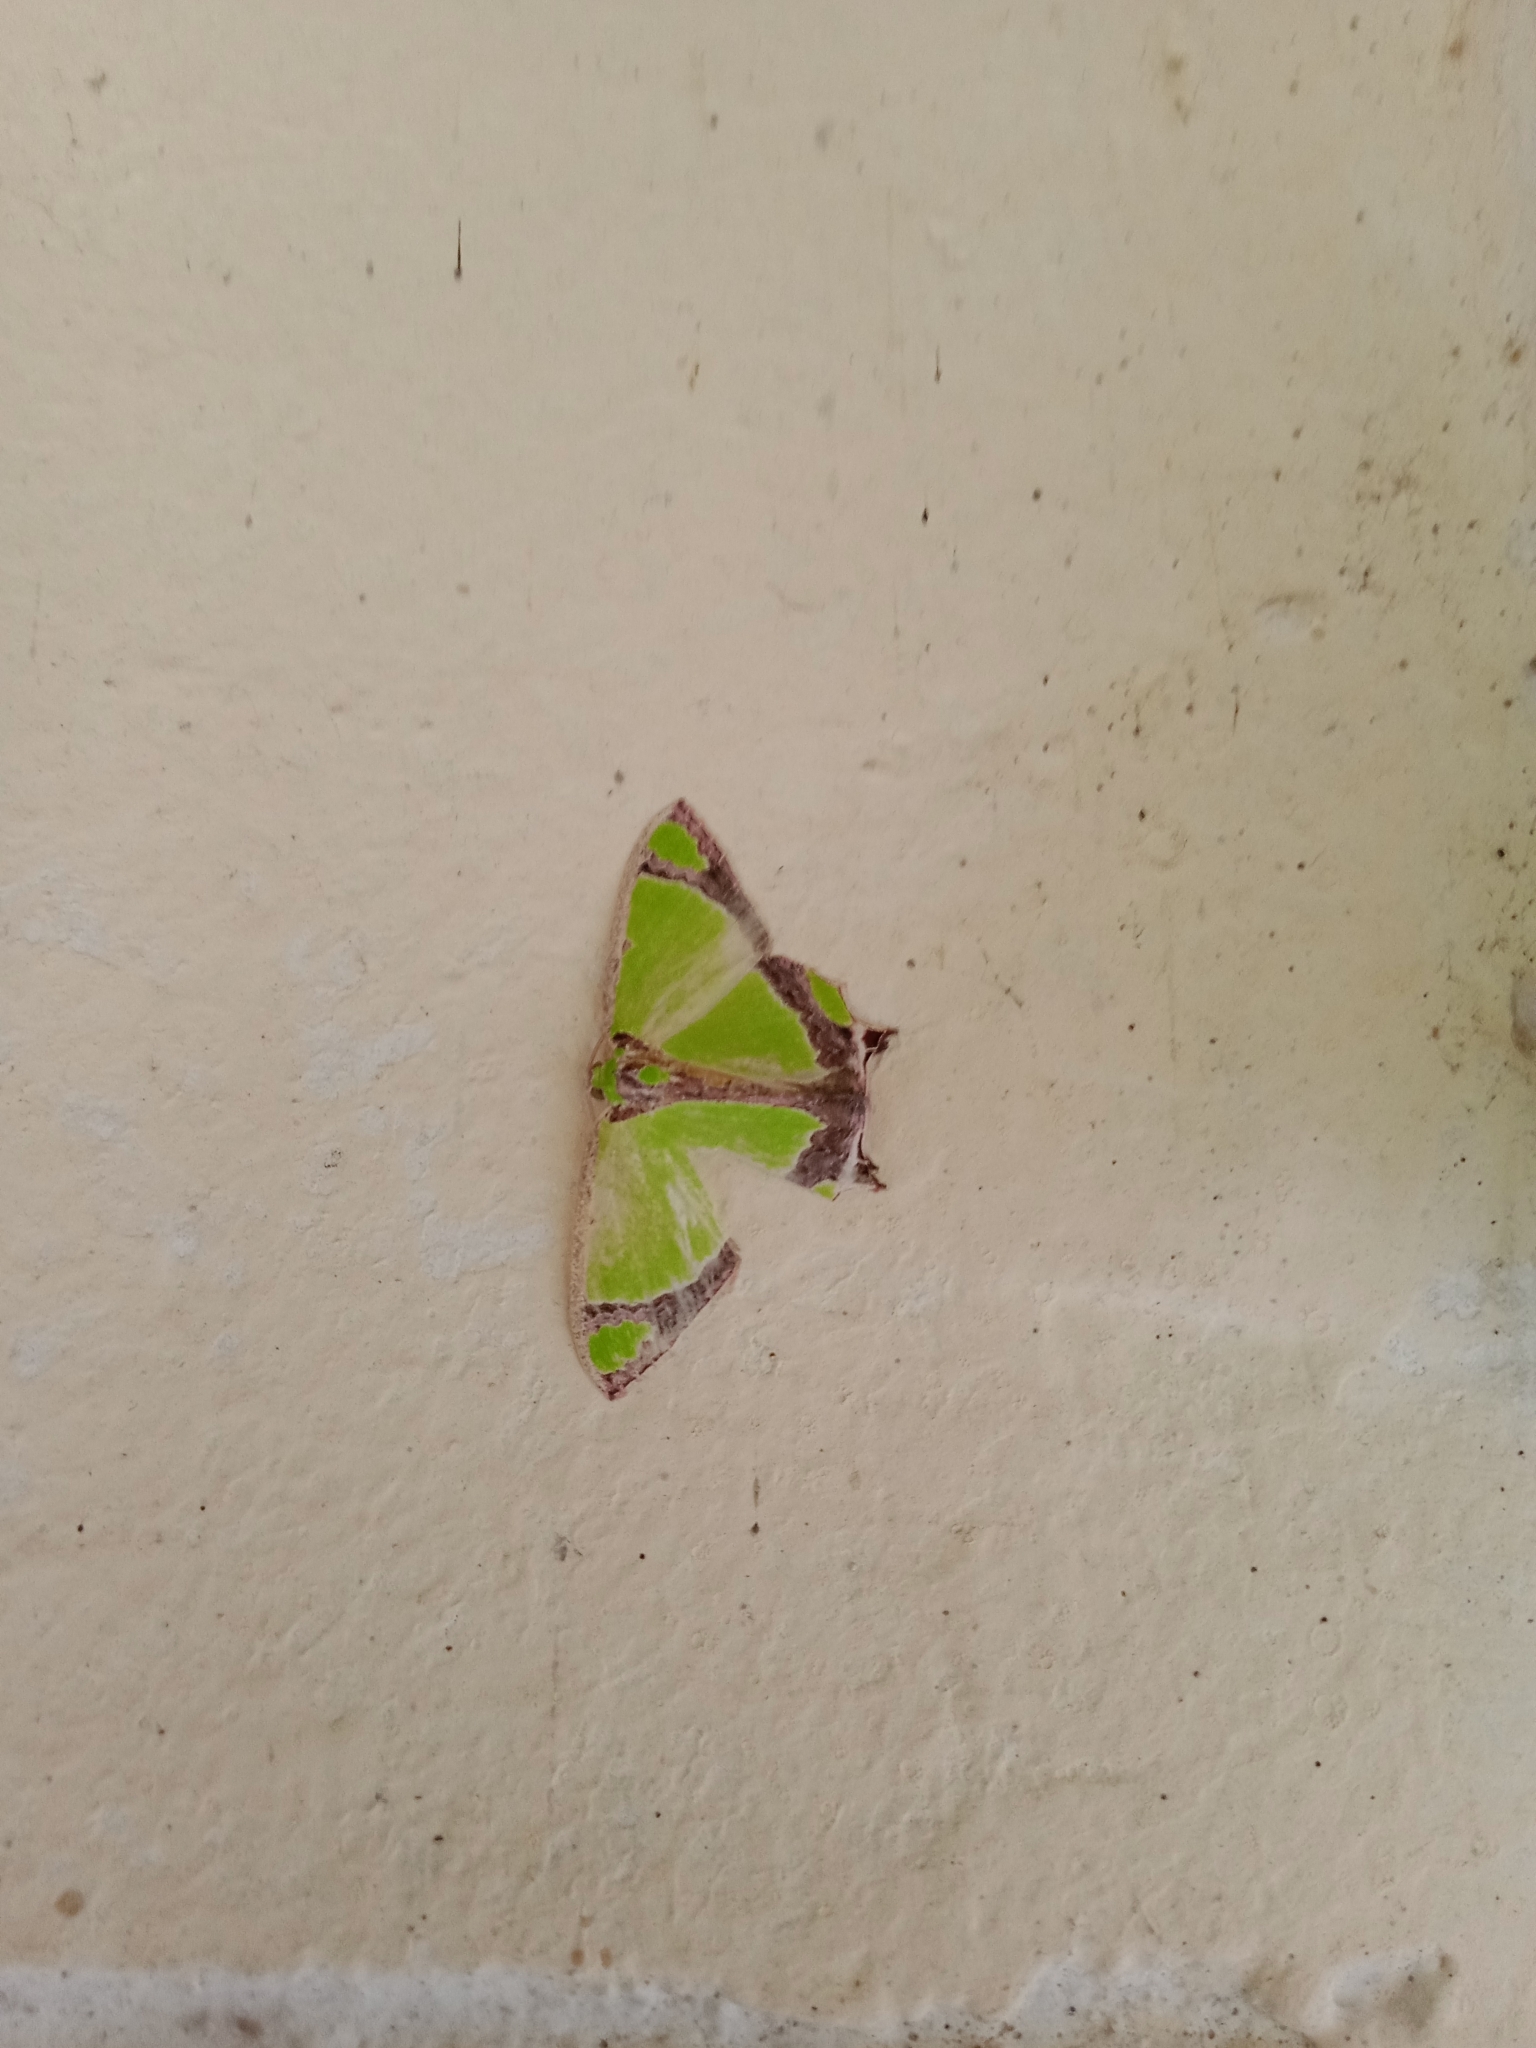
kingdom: Animalia
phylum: Arthropoda
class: Insecta
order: Lepidoptera
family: Geometridae
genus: Agathia
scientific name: Agathia laetata
